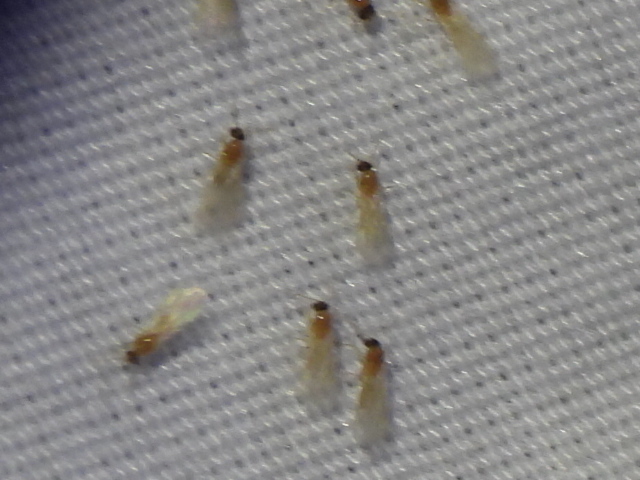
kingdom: Animalia
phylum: Arthropoda
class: Insecta
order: Hymenoptera
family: Formicidae
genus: Brachymyrmex
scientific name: Brachymyrmex patagonicus
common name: Dark rover ant
